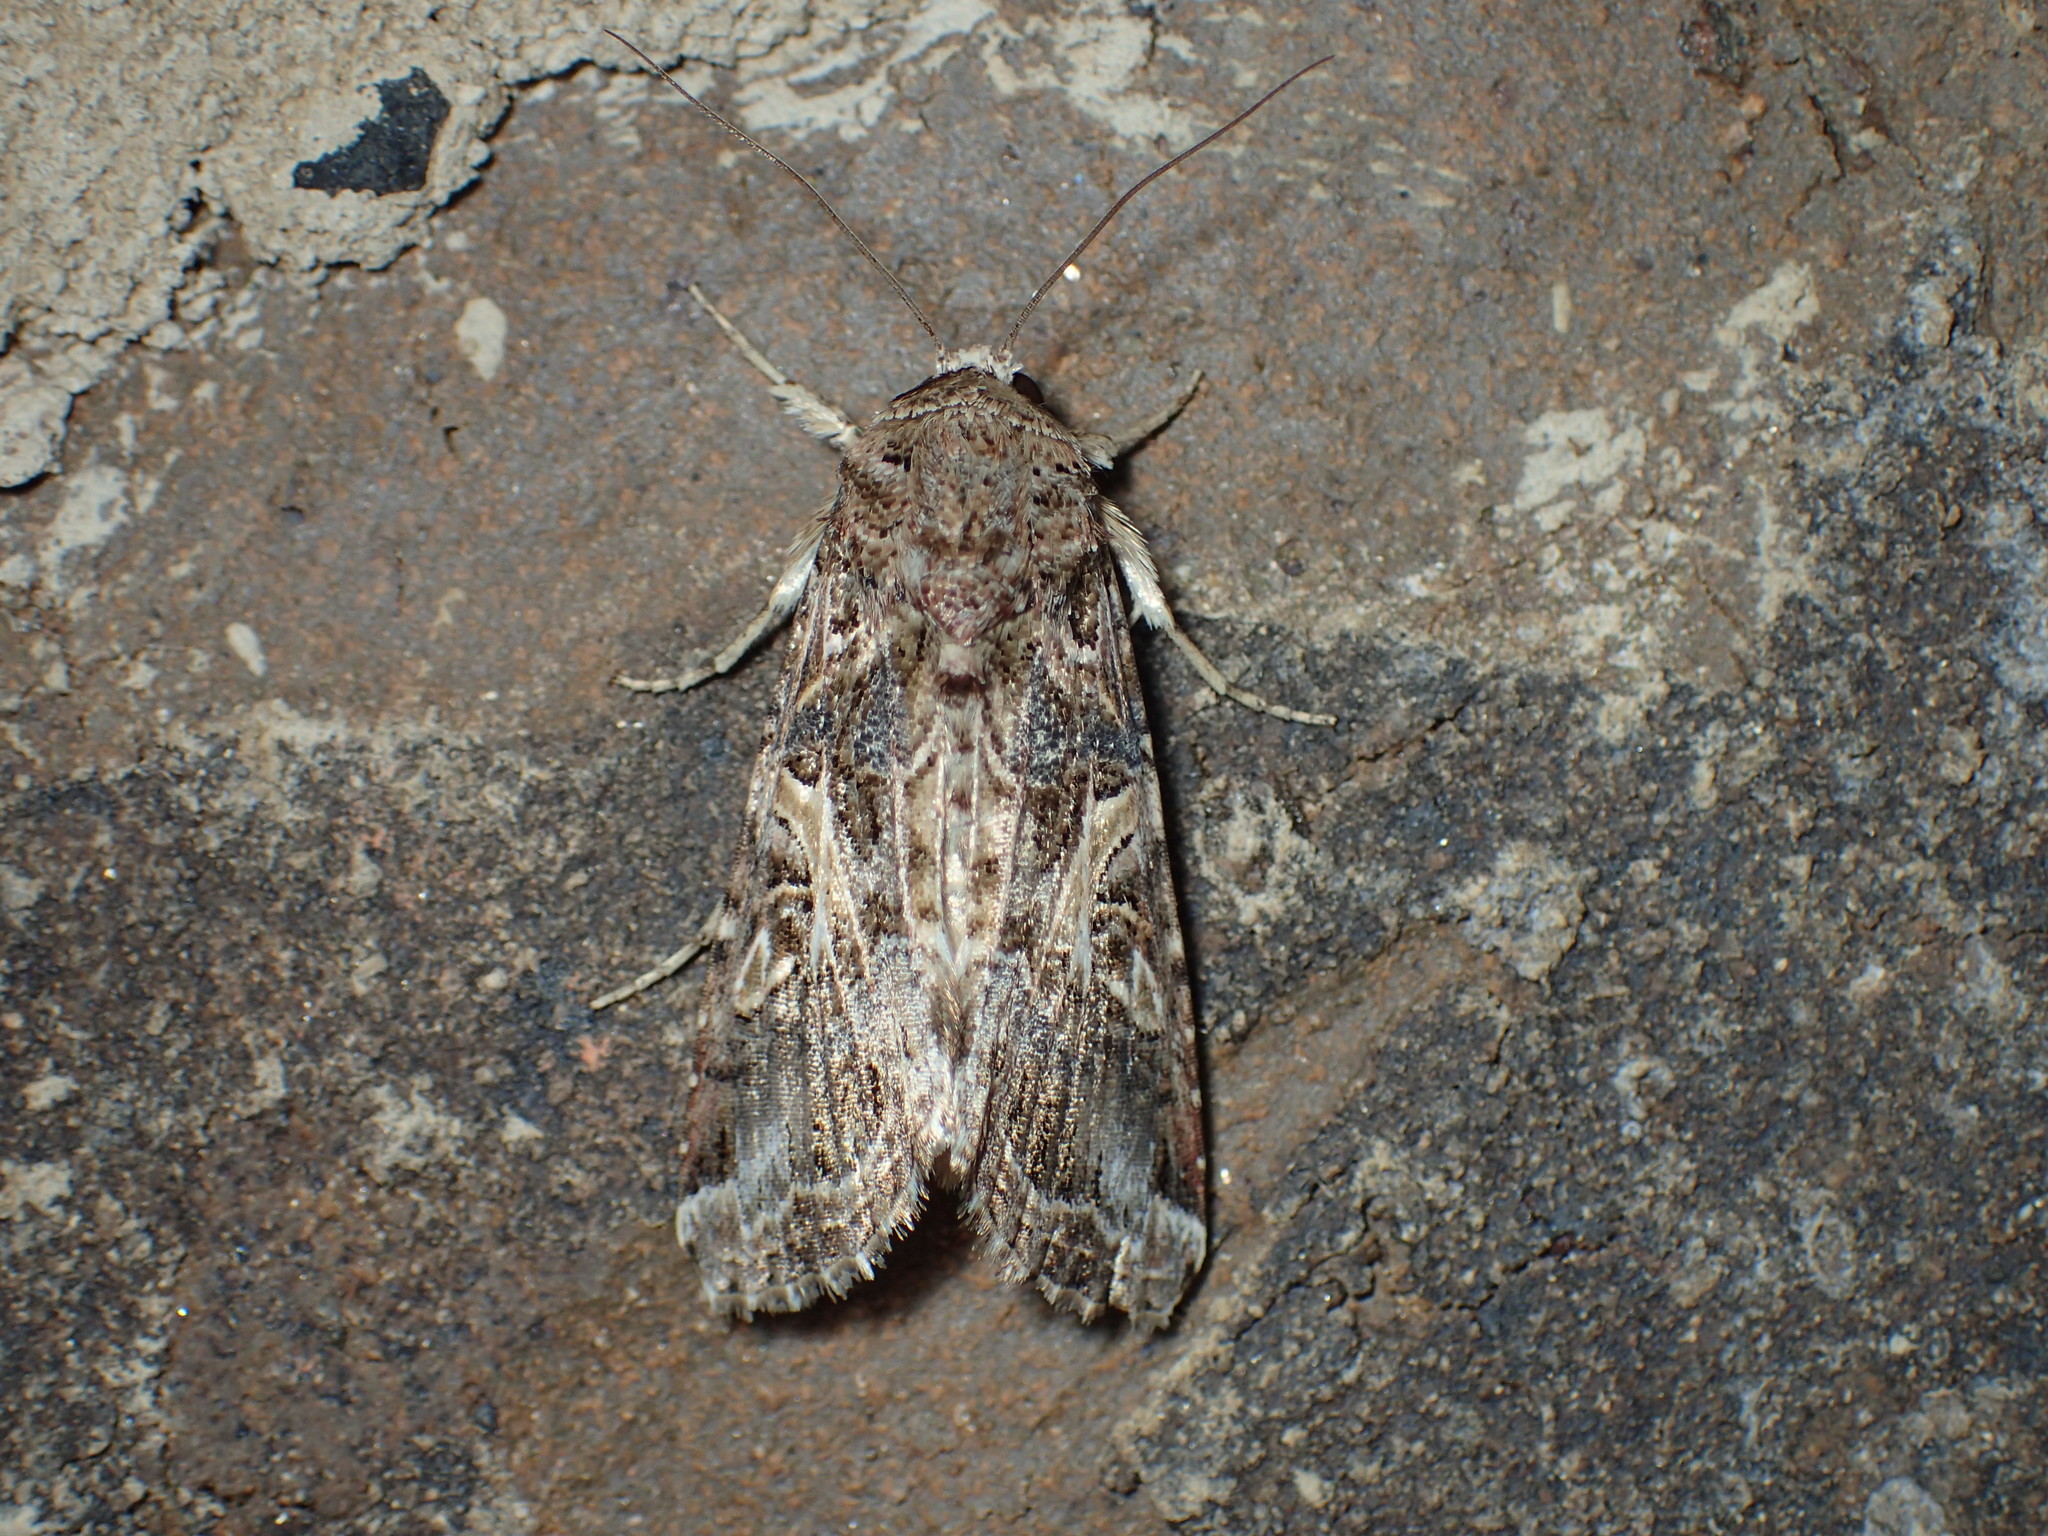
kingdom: Animalia
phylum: Arthropoda
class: Insecta
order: Lepidoptera
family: Noctuidae
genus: Spodoptera
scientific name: Spodoptera ornithogalli
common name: Yellow-striped armyworm
